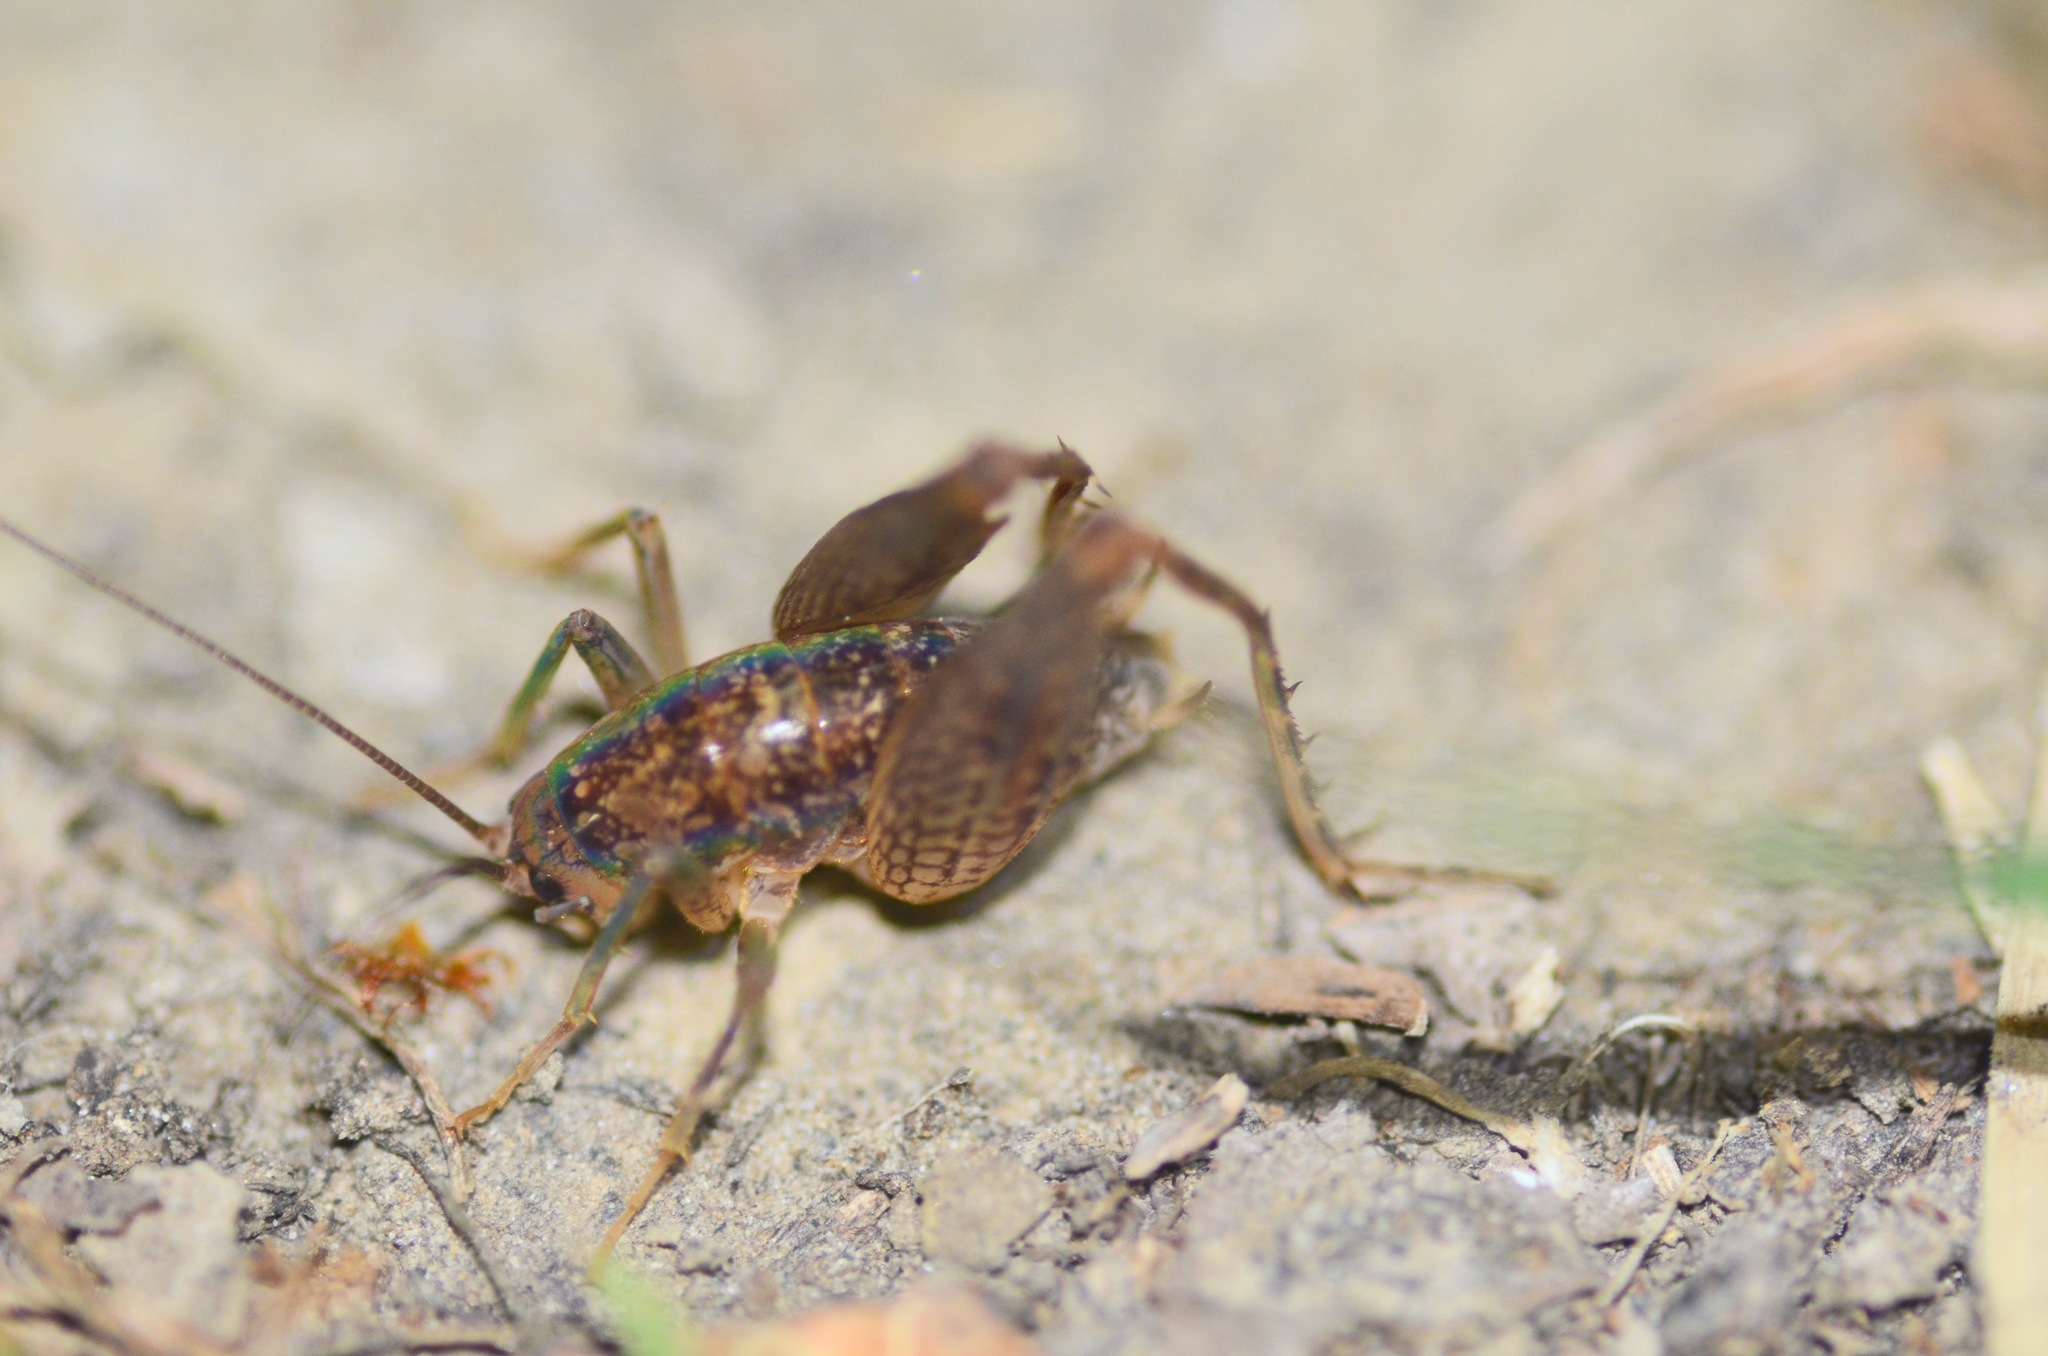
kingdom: Animalia
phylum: Arthropoda
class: Insecta
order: Orthoptera
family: Rhaphidophoridae
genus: Pristoceuthophilus
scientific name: Pristoceuthophilus
